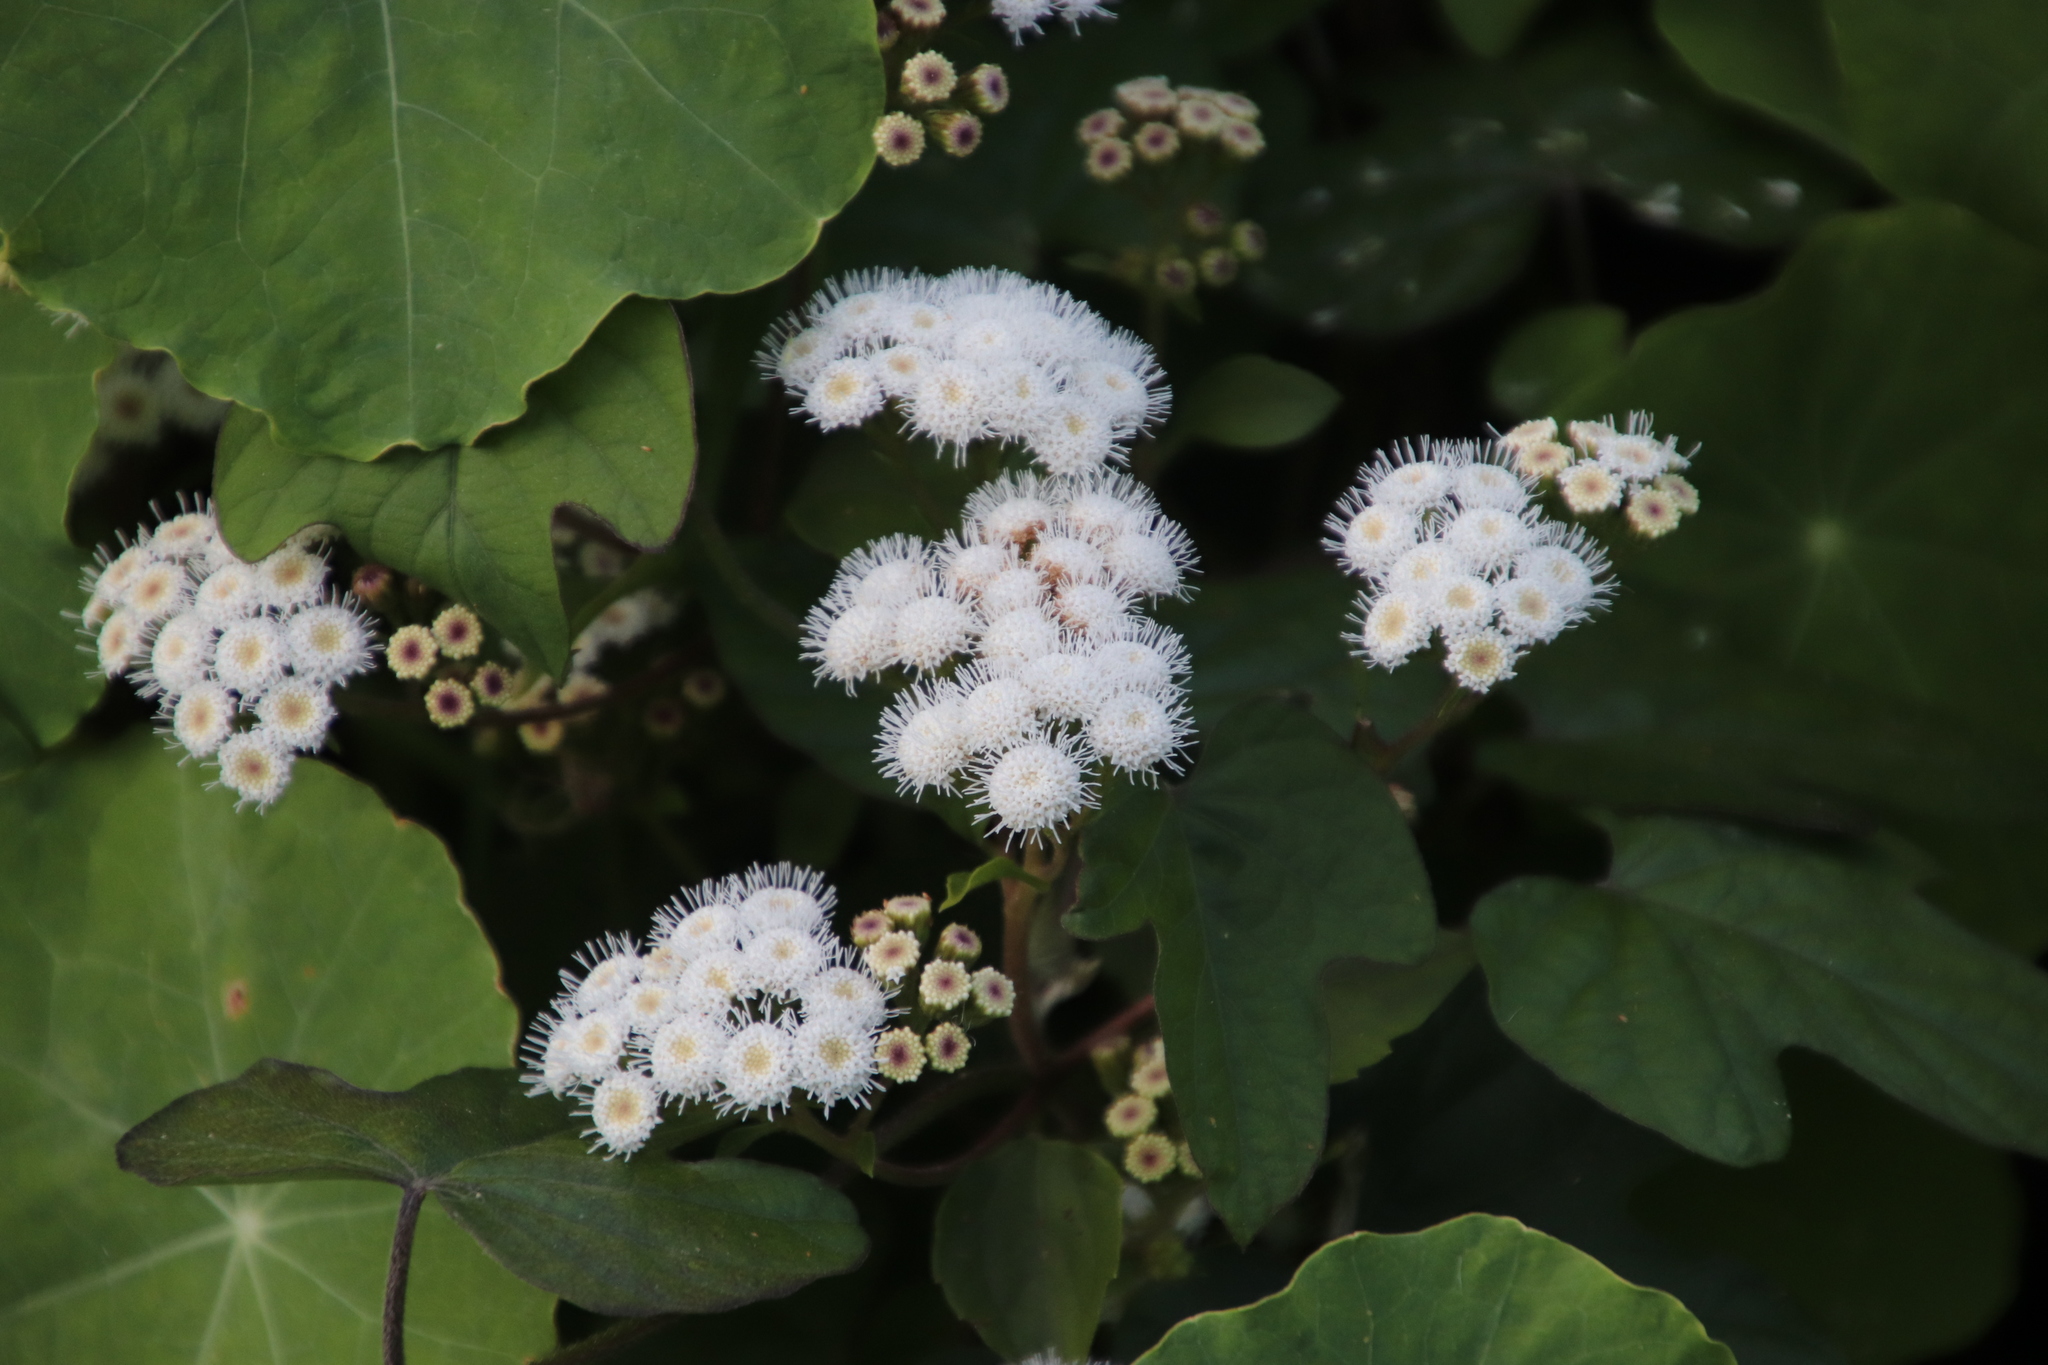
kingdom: Plantae
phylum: Tracheophyta
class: Magnoliopsida
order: Asterales
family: Asteraceae
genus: Ageratina
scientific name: Ageratina adenophora
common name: Sticky snakeroot
